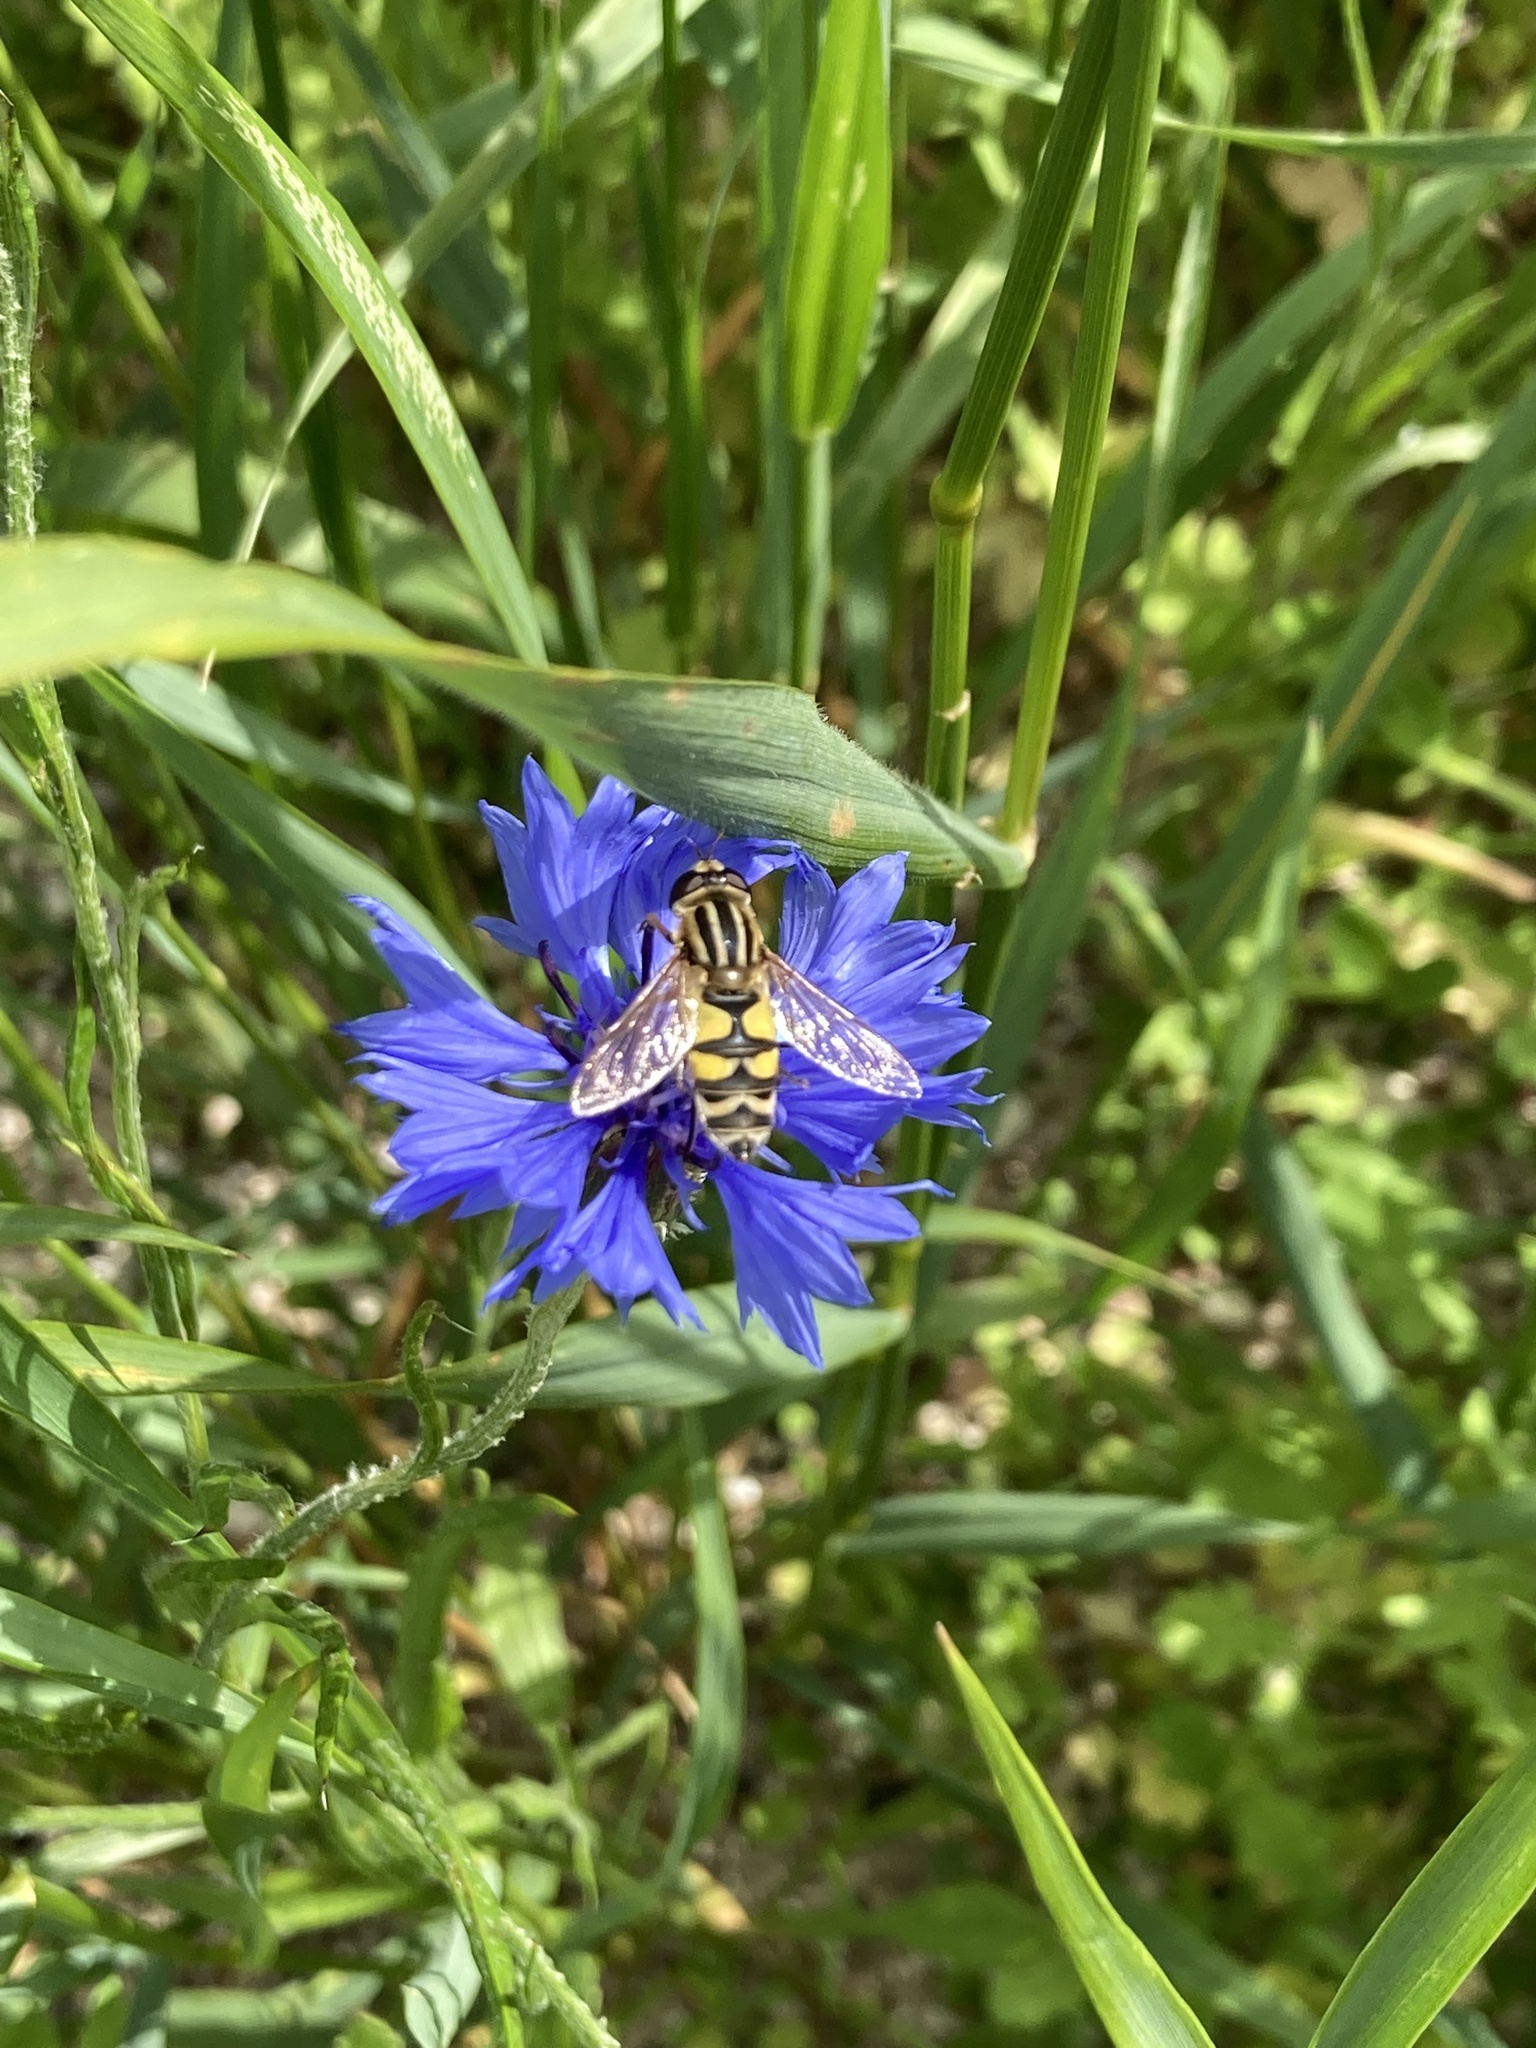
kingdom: Animalia
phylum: Arthropoda
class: Insecta
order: Diptera
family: Syrphidae
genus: Helophilus
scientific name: Helophilus trivittatus
